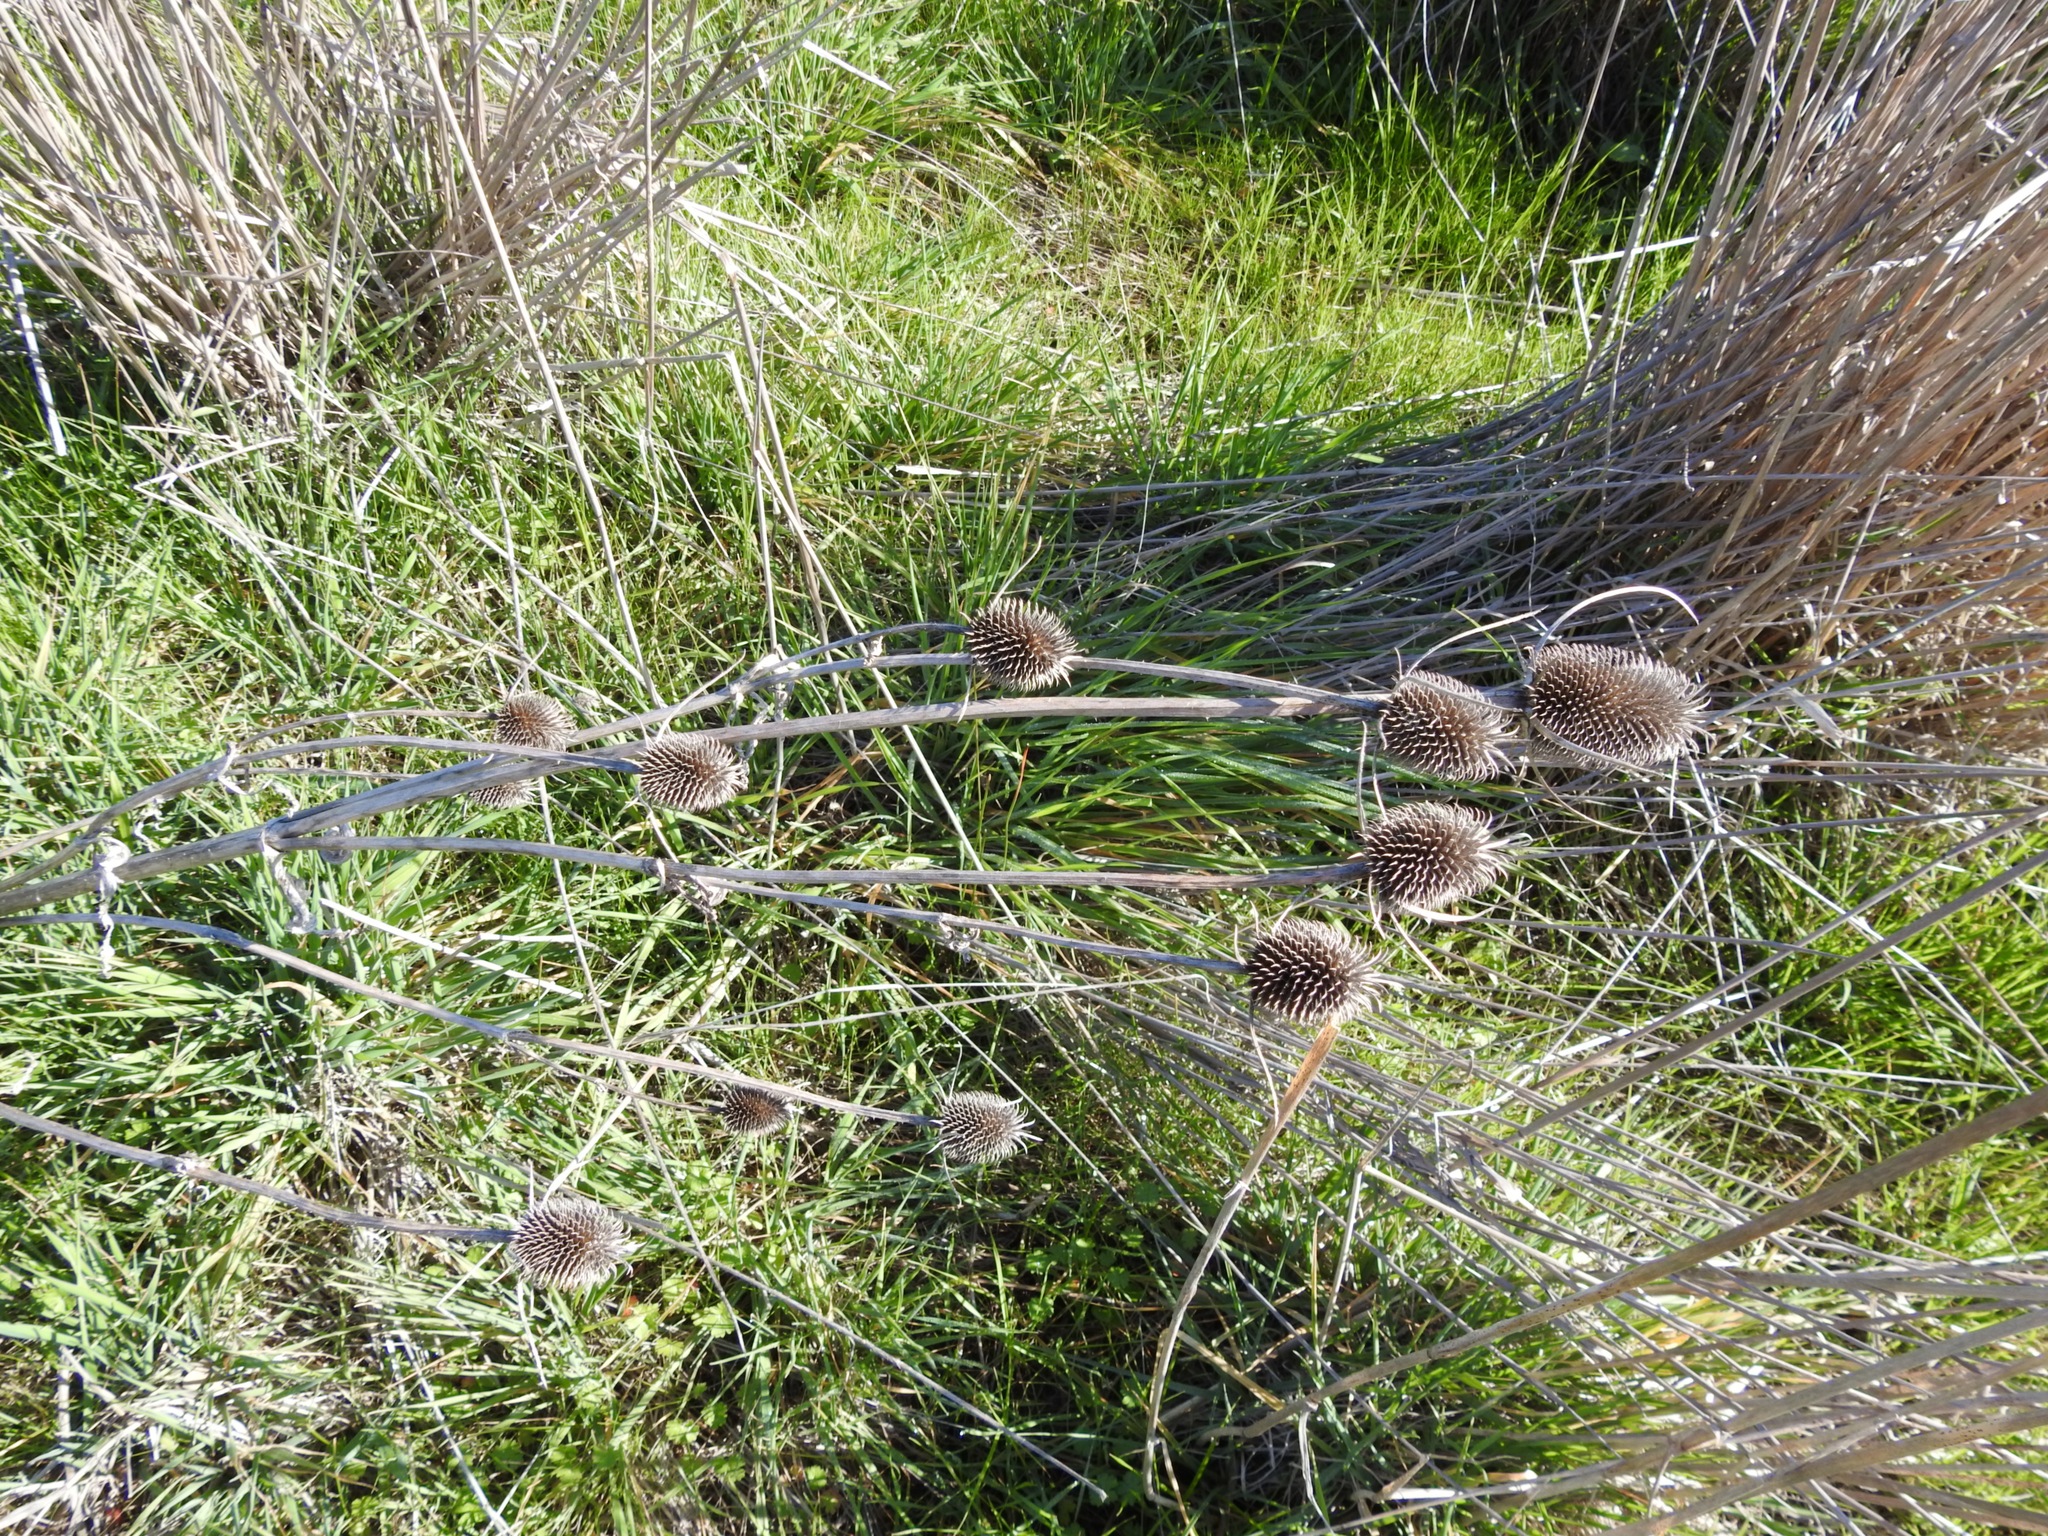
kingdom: Plantae
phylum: Tracheophyta
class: Magnoliopsida
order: Dipsacales
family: Caprifoliaceae
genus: Dipsacus
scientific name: Dipsacus sativus
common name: Fuller's teasel
